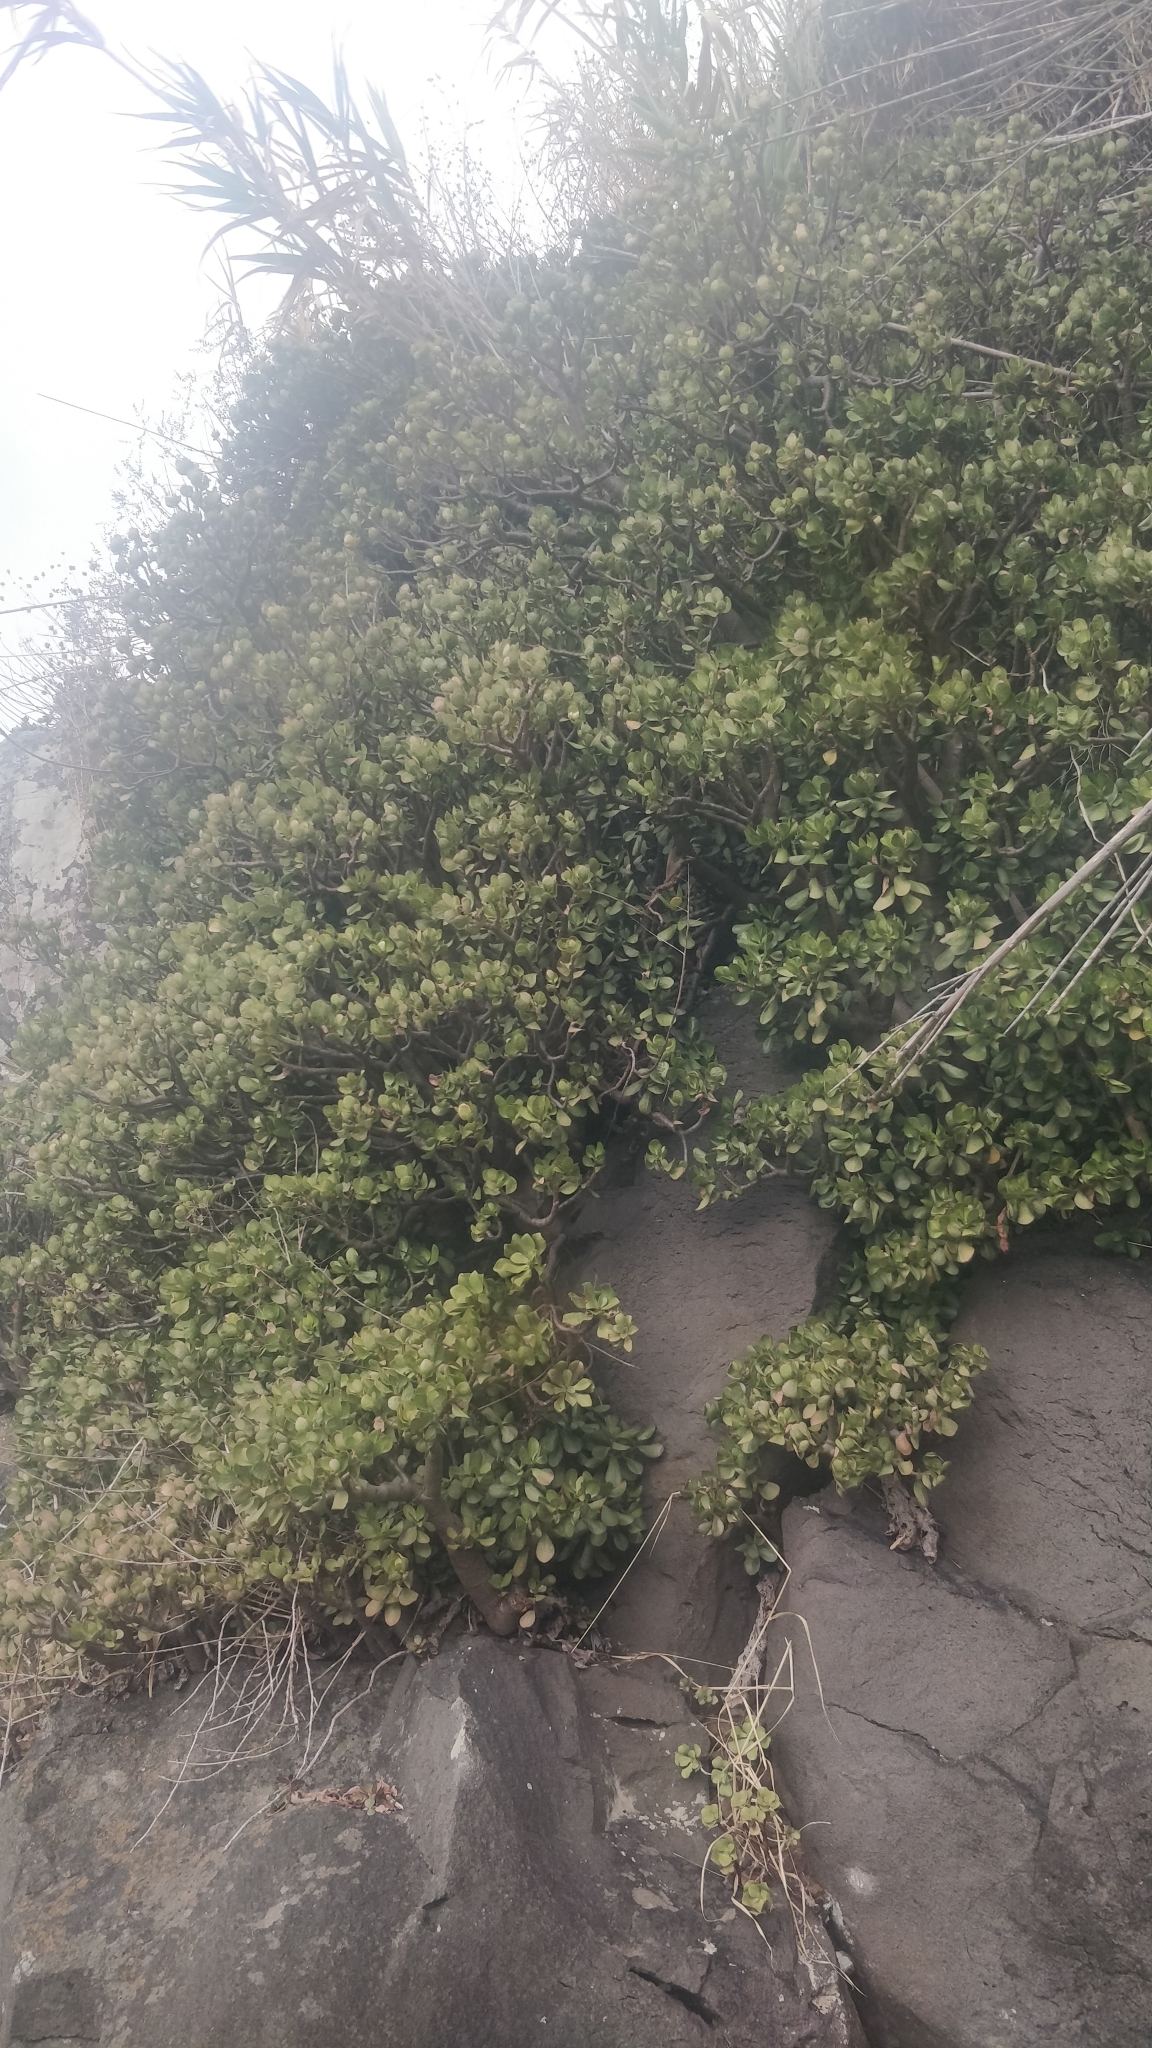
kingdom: Plantae
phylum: Tracheophyta
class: Magnoliopsida
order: Saxifragales
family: Crassulaceae
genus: Crassula
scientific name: Crassula ovata
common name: Jade plant
